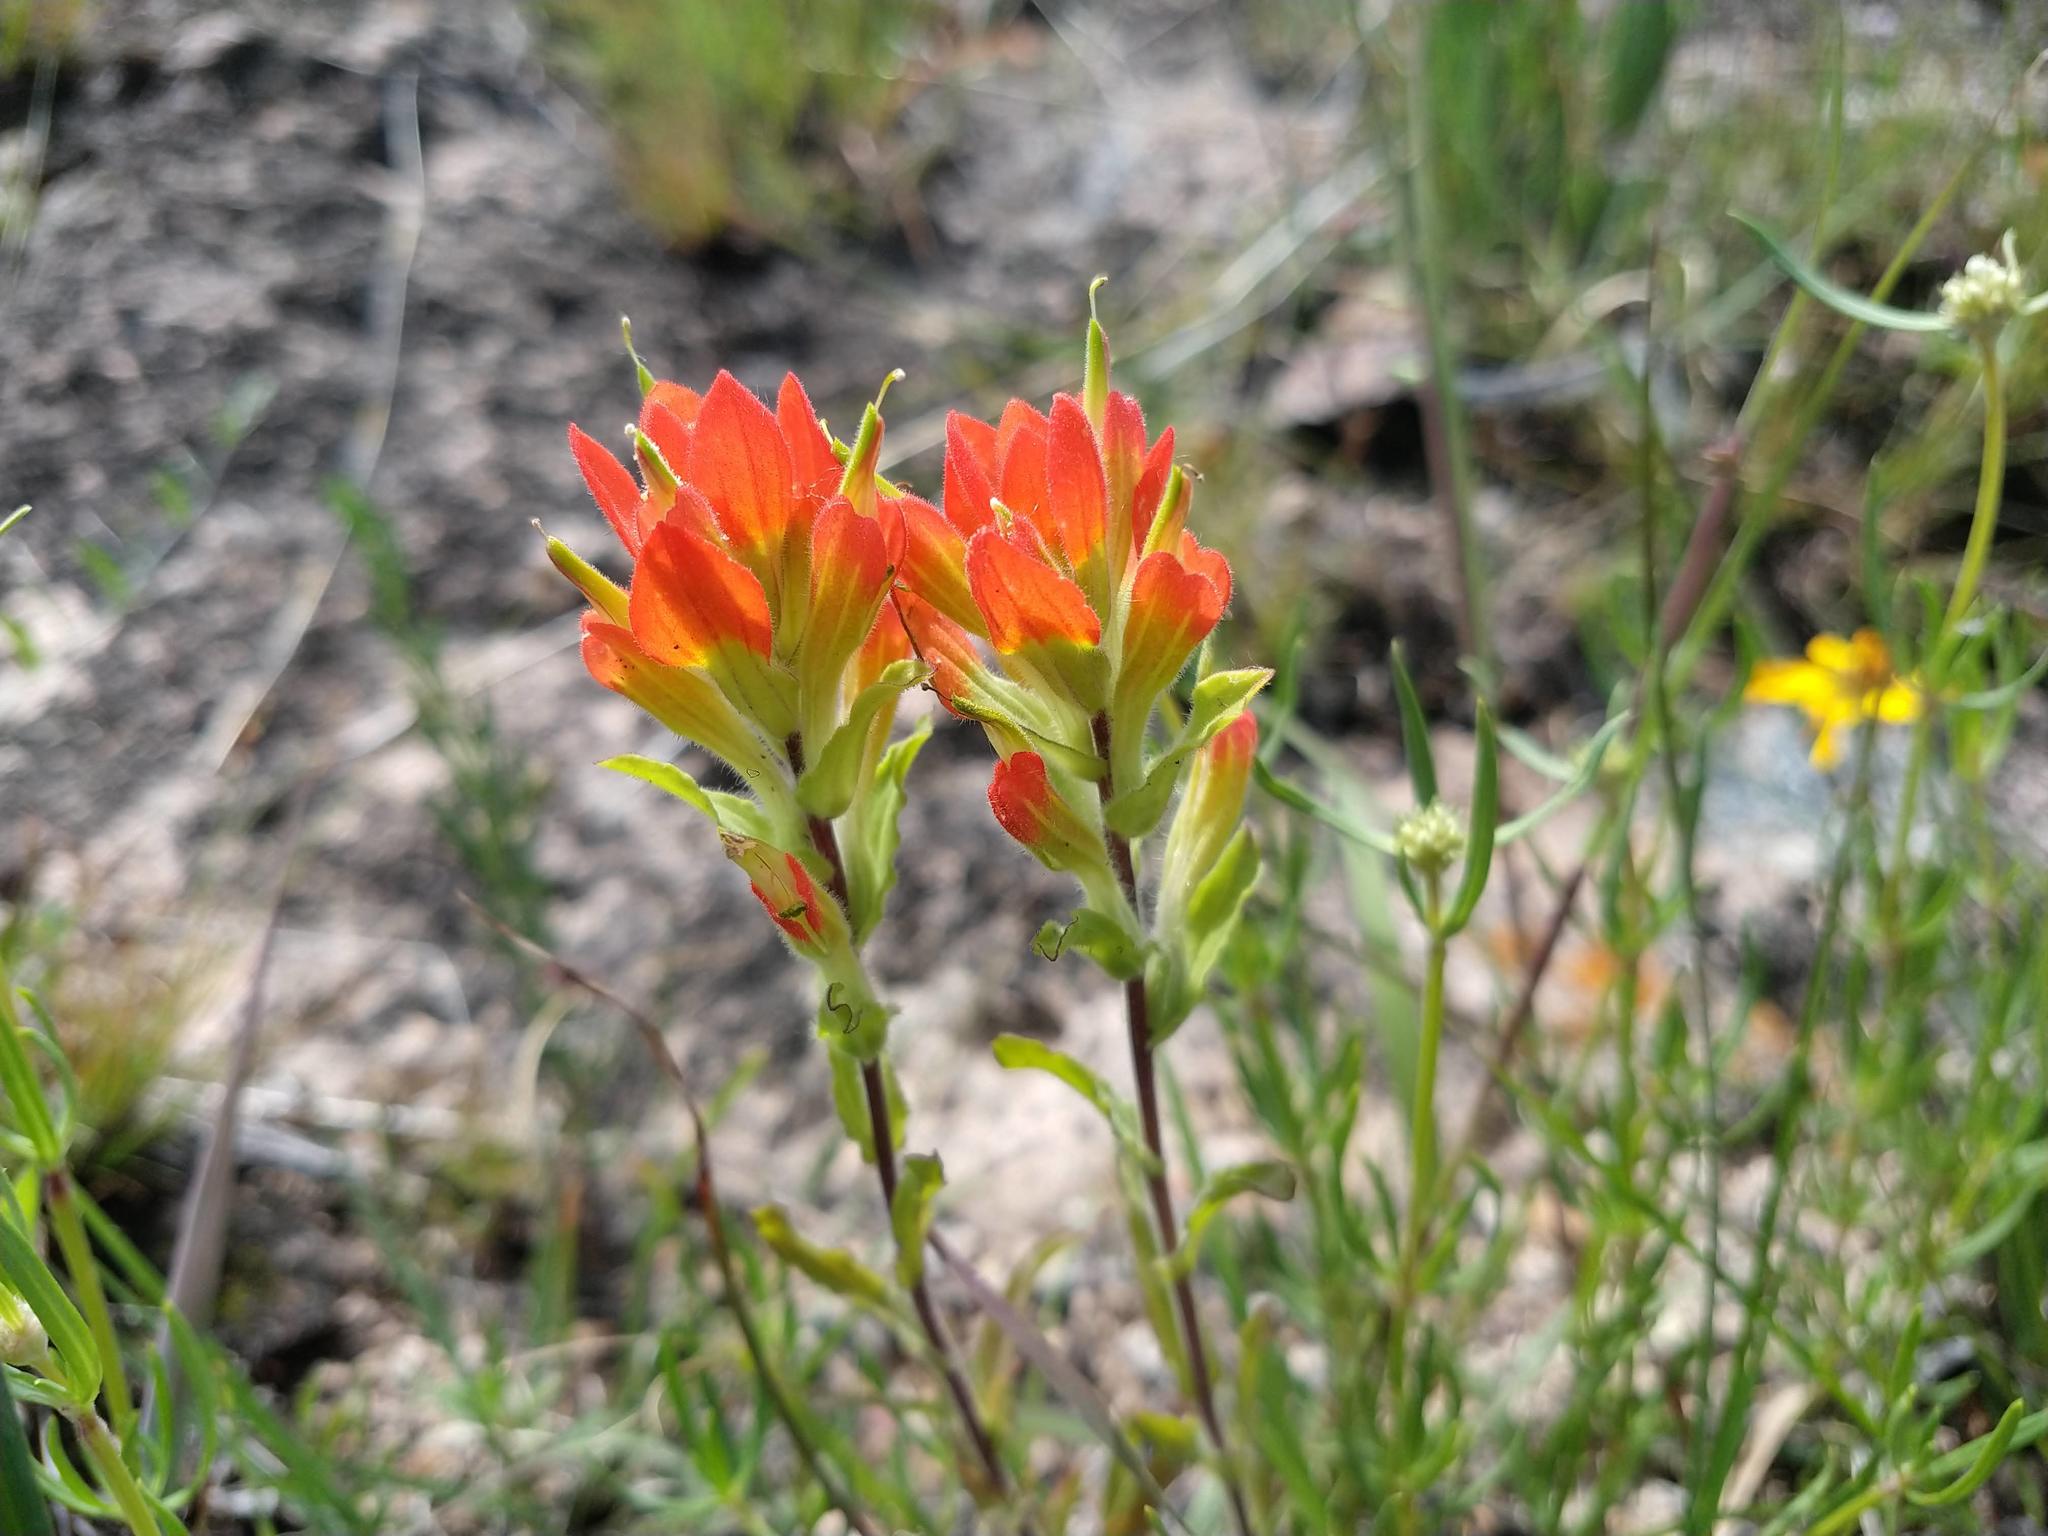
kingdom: Plantae
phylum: Tracheophyta
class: Magnoliopsida
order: Lamiales
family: Orobanchaceae
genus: Castilleja
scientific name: Castilleja scorzonerifolia
